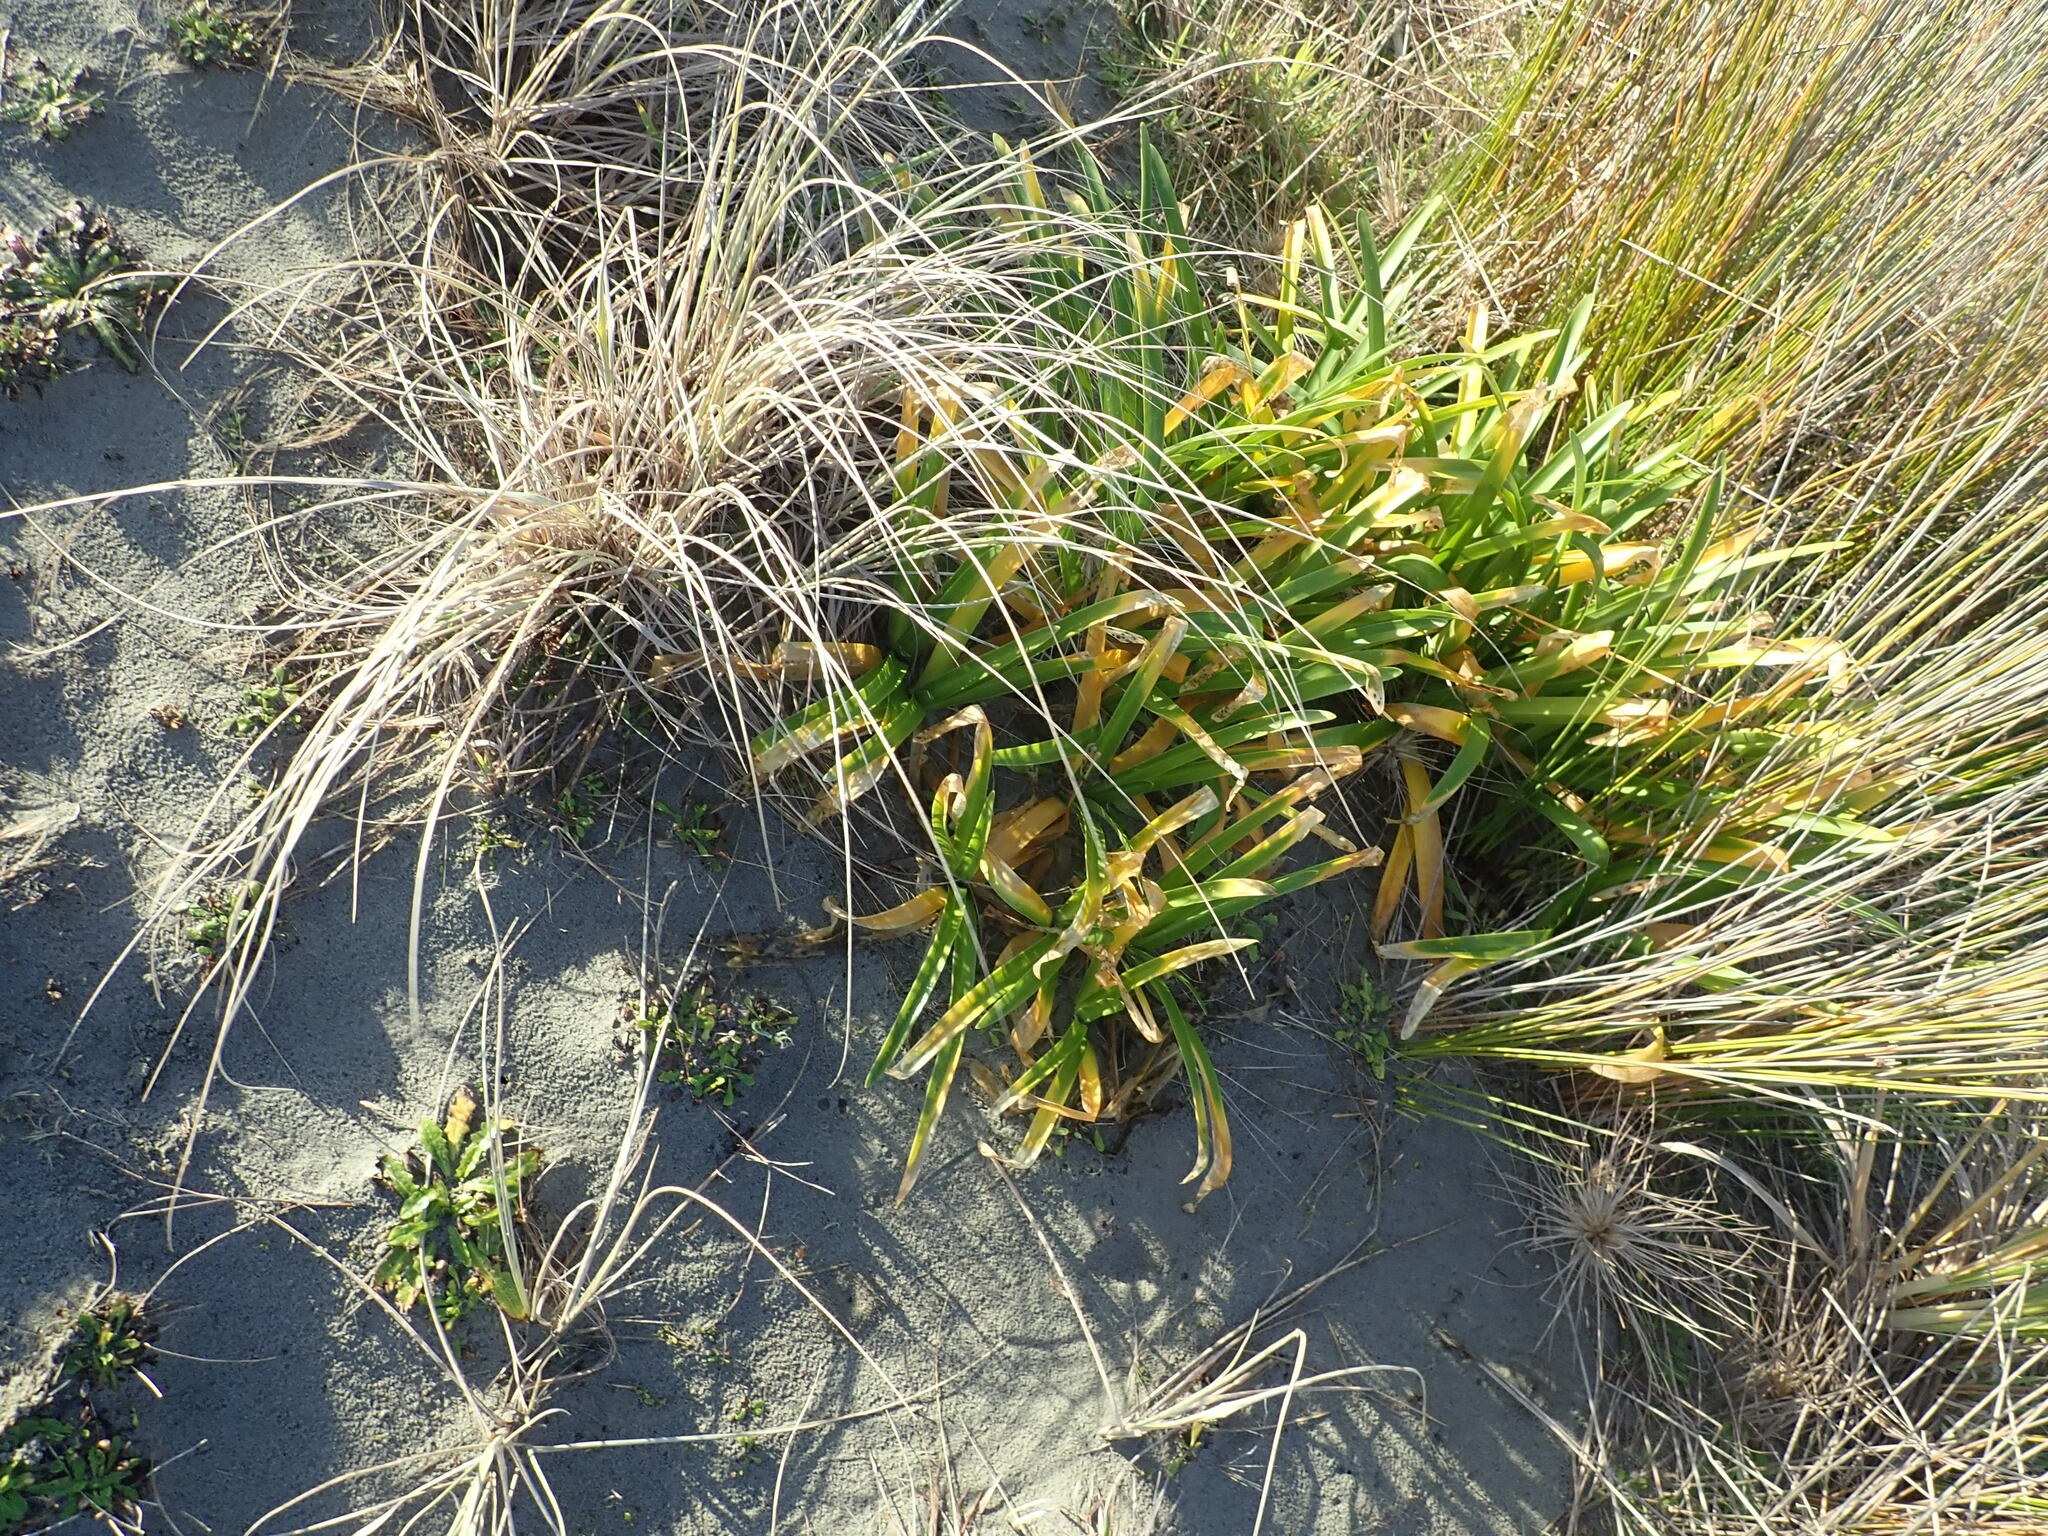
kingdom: Plantae
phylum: Tracheophyta
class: Liliopsida
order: Asparagales
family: Amaryllidaceae
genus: Agapanthus
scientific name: Agapanthus praecox
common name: African-lily
